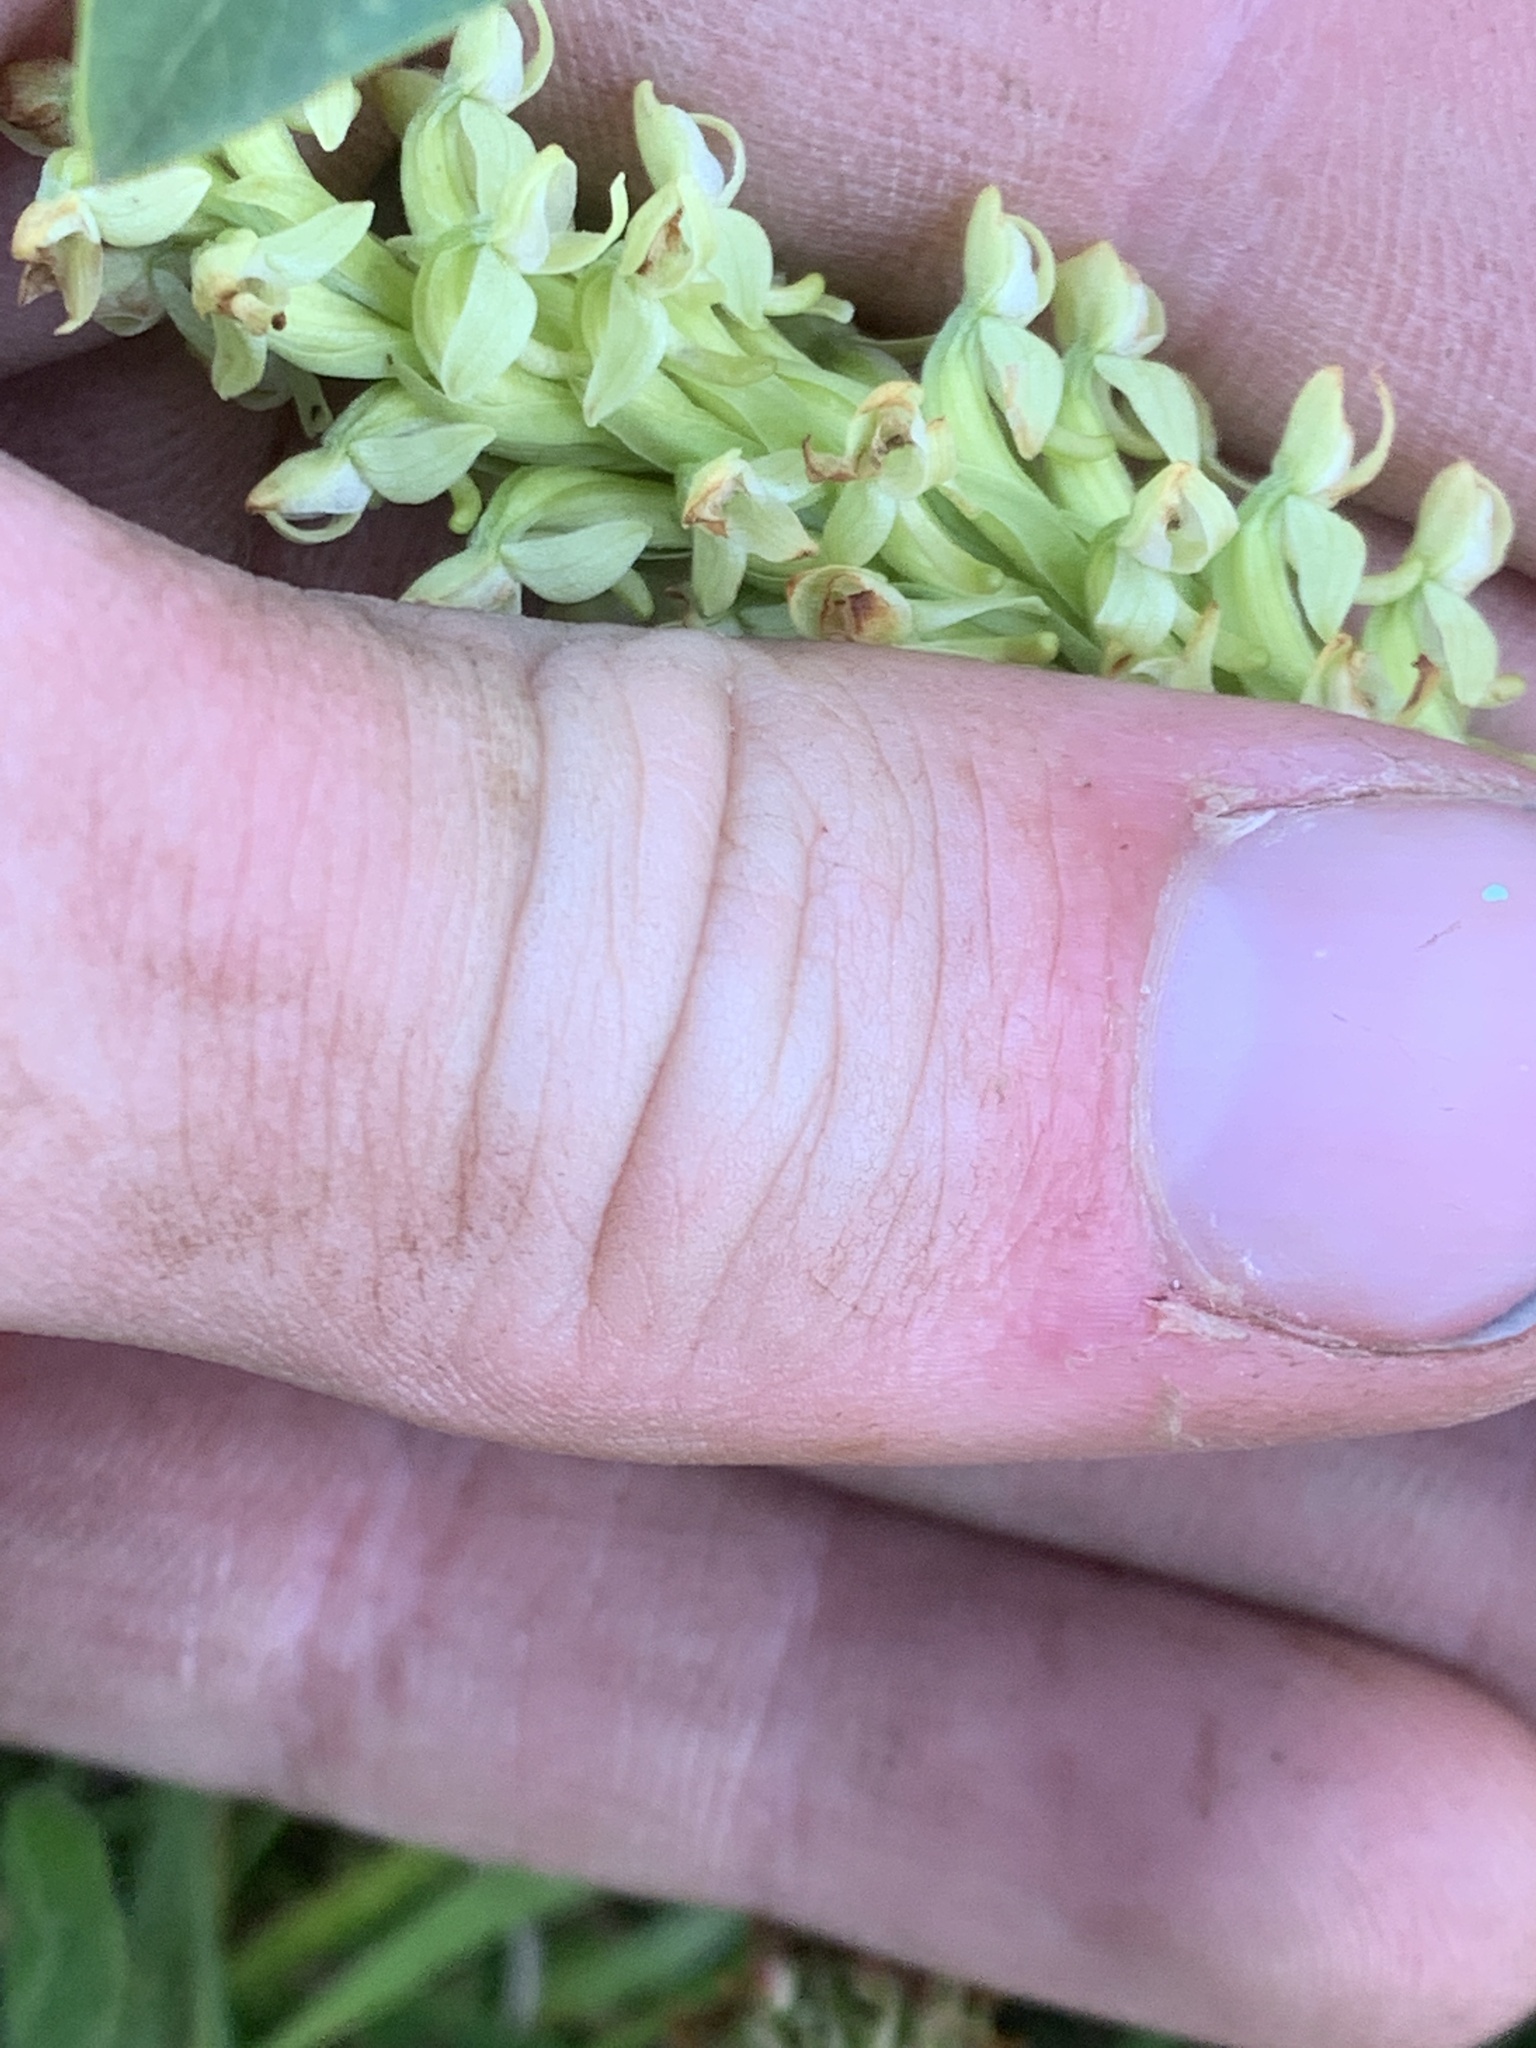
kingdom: Plantae
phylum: Tracheophyta
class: Liliopsida
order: Asparagales
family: Orchidaceae
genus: Platanthera
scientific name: Platanthera huronensis
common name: Fragrant green orchid
